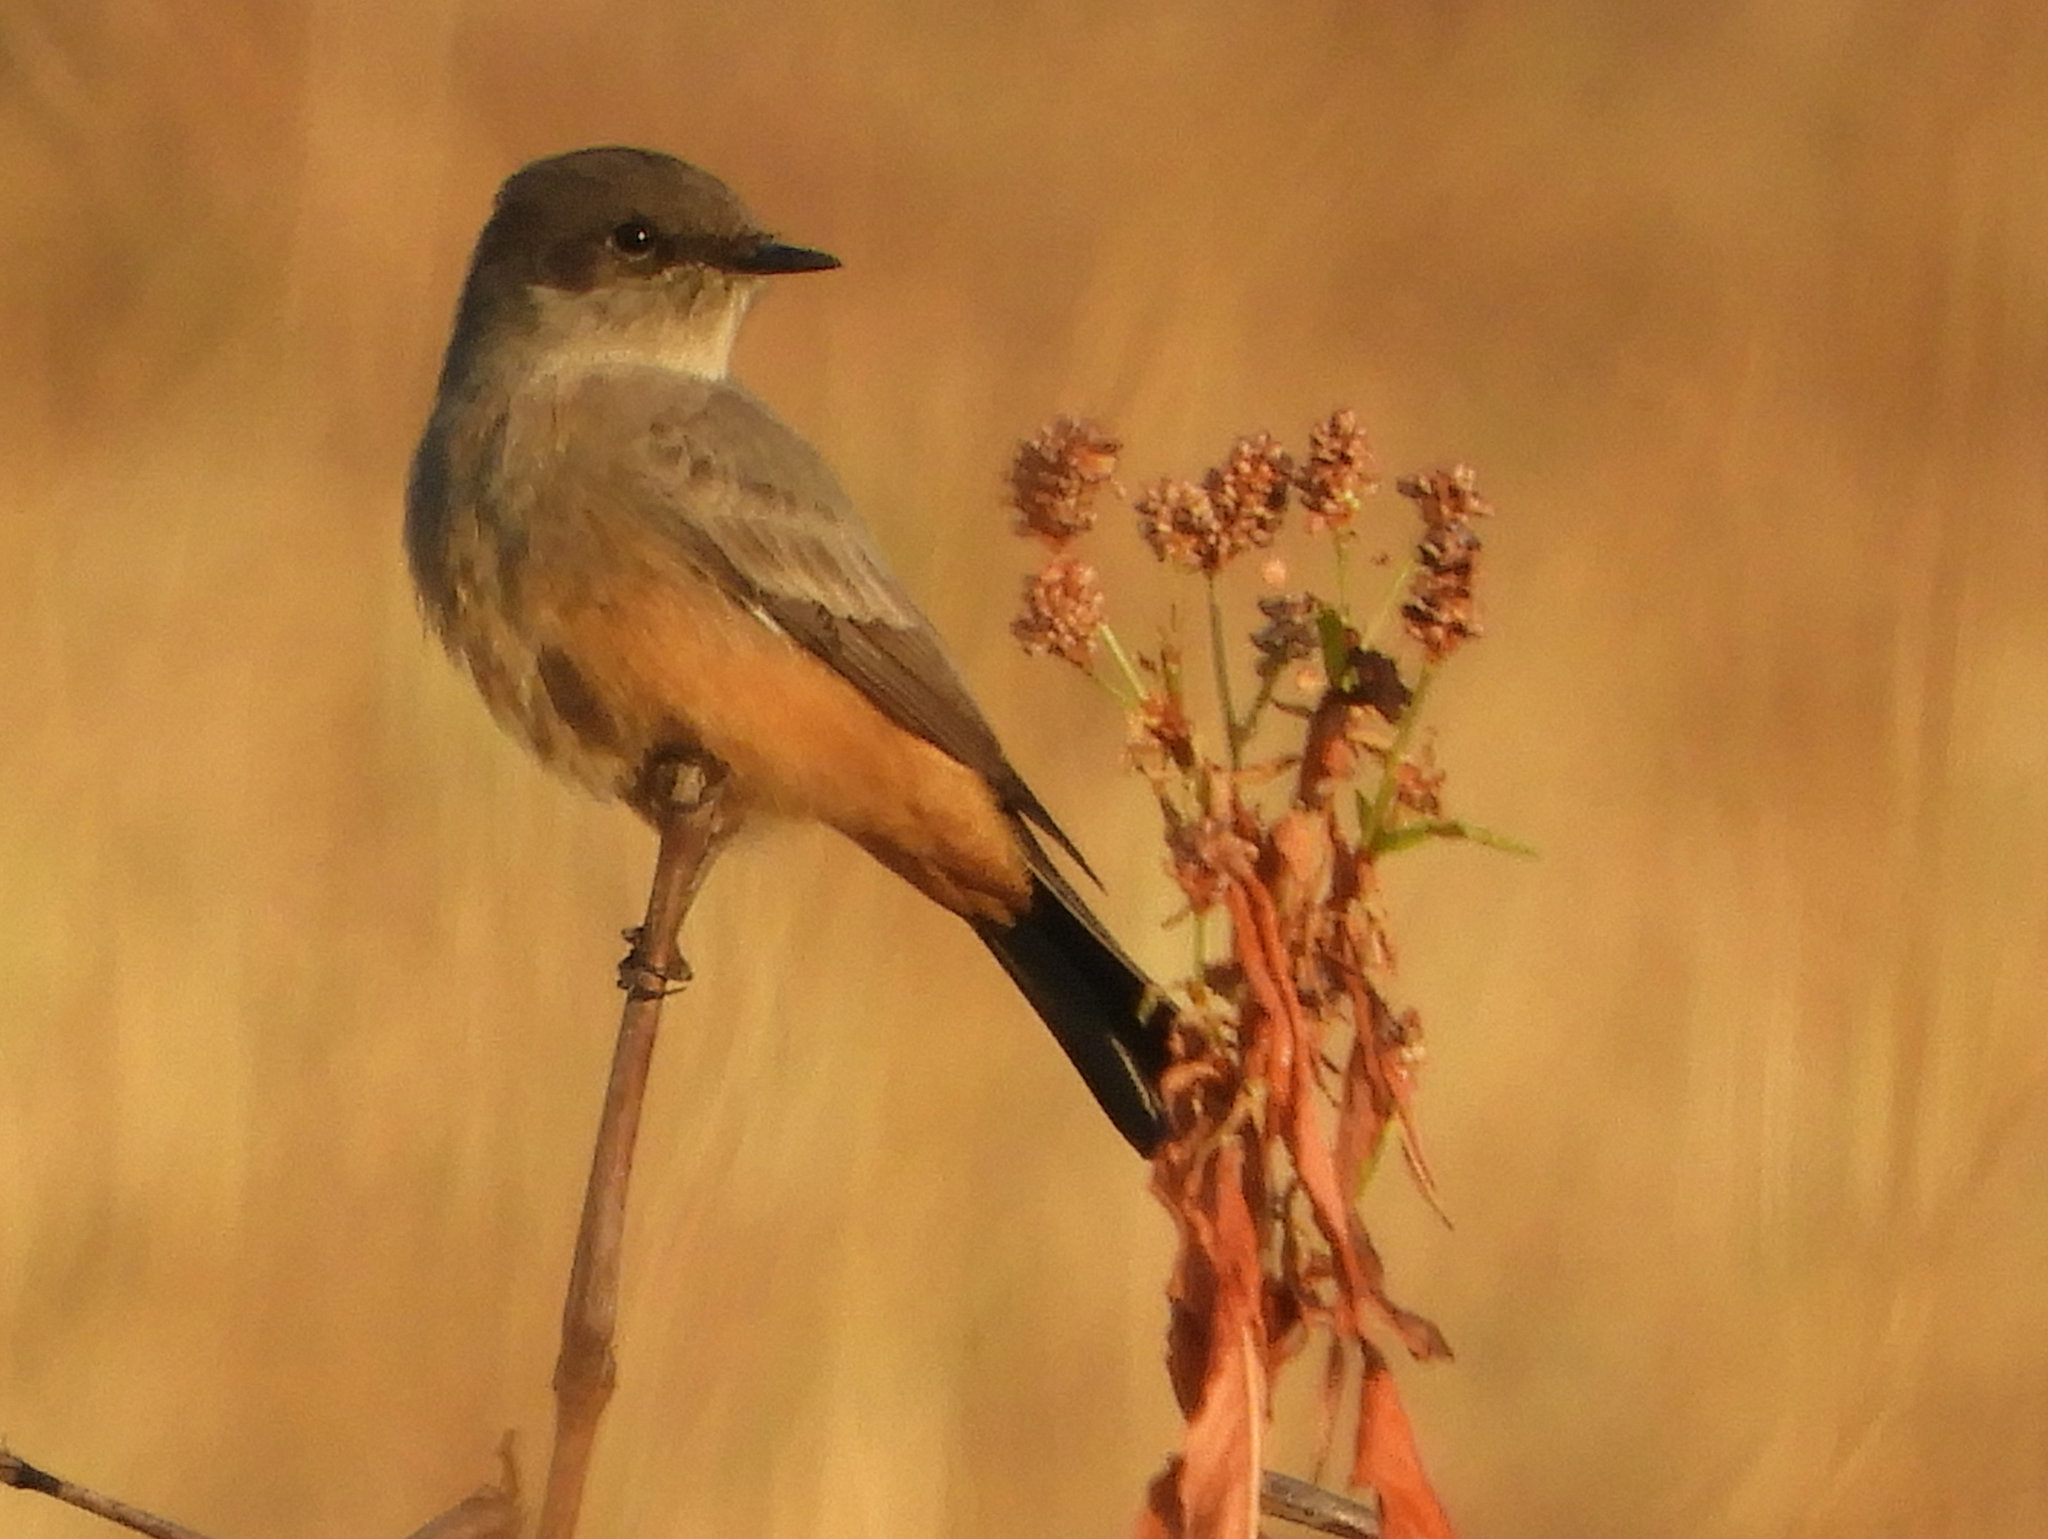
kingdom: Animalia
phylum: Chordata
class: Aves
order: Passeriformes
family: Tyrannidae
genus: Sayornis
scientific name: Sayornis saya
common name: Say's phoebe
